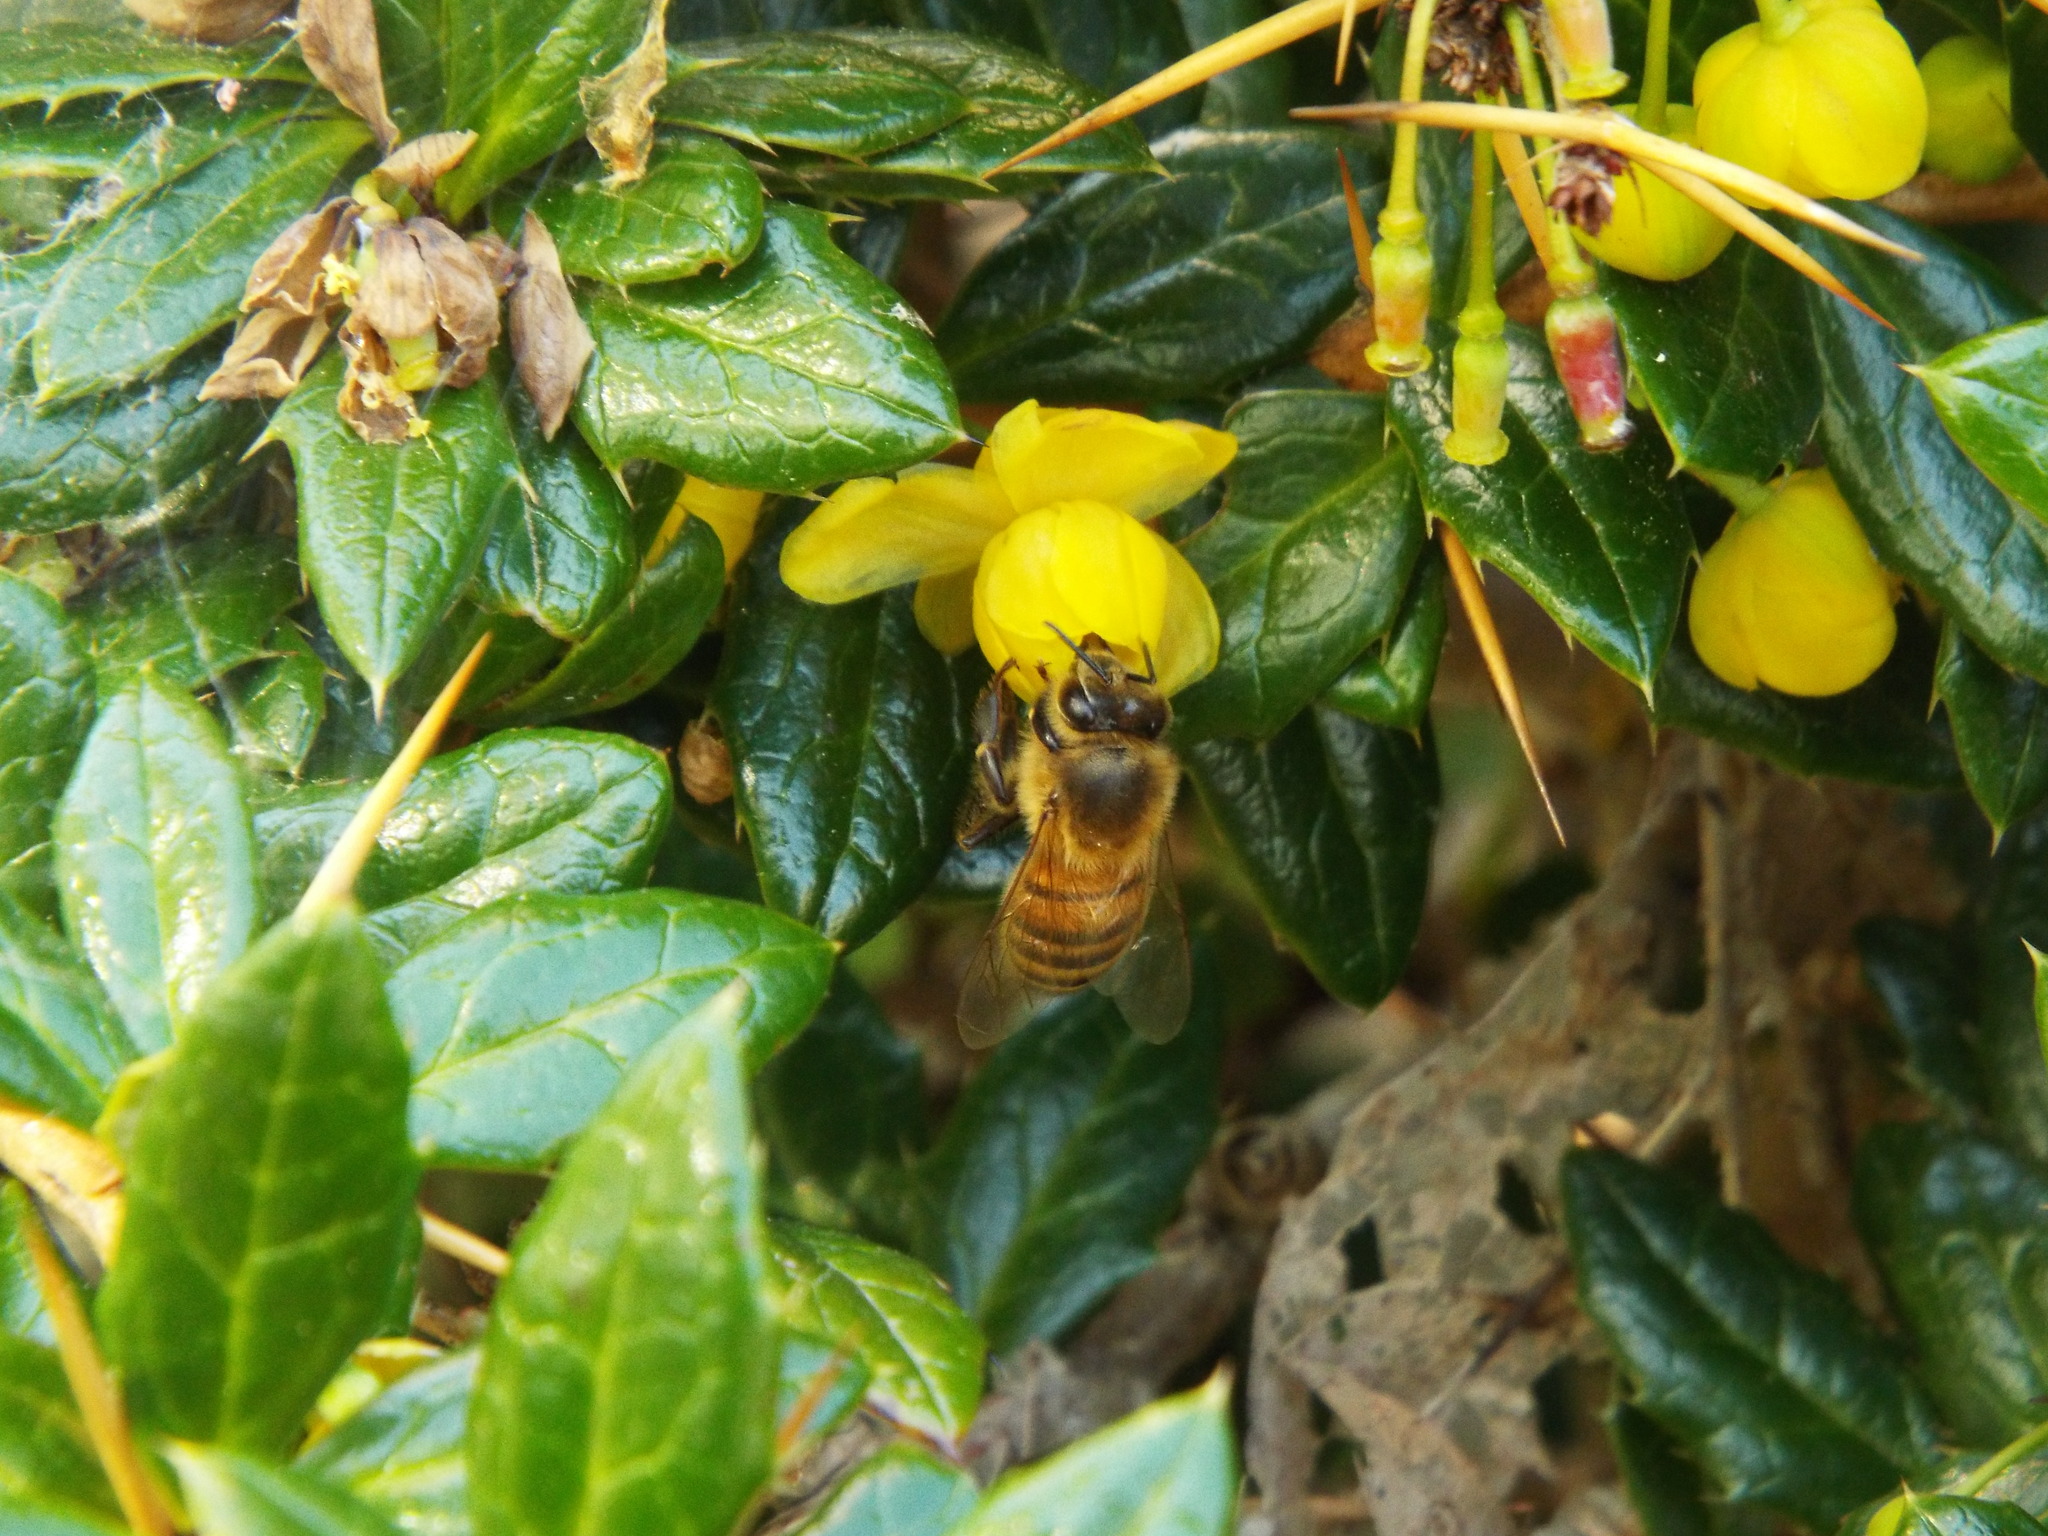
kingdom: Animalia
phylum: Arthropoda
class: Insecta
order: Hymenoptera
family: Apidae
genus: Apis
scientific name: Apis mellifera
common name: Honey bee
